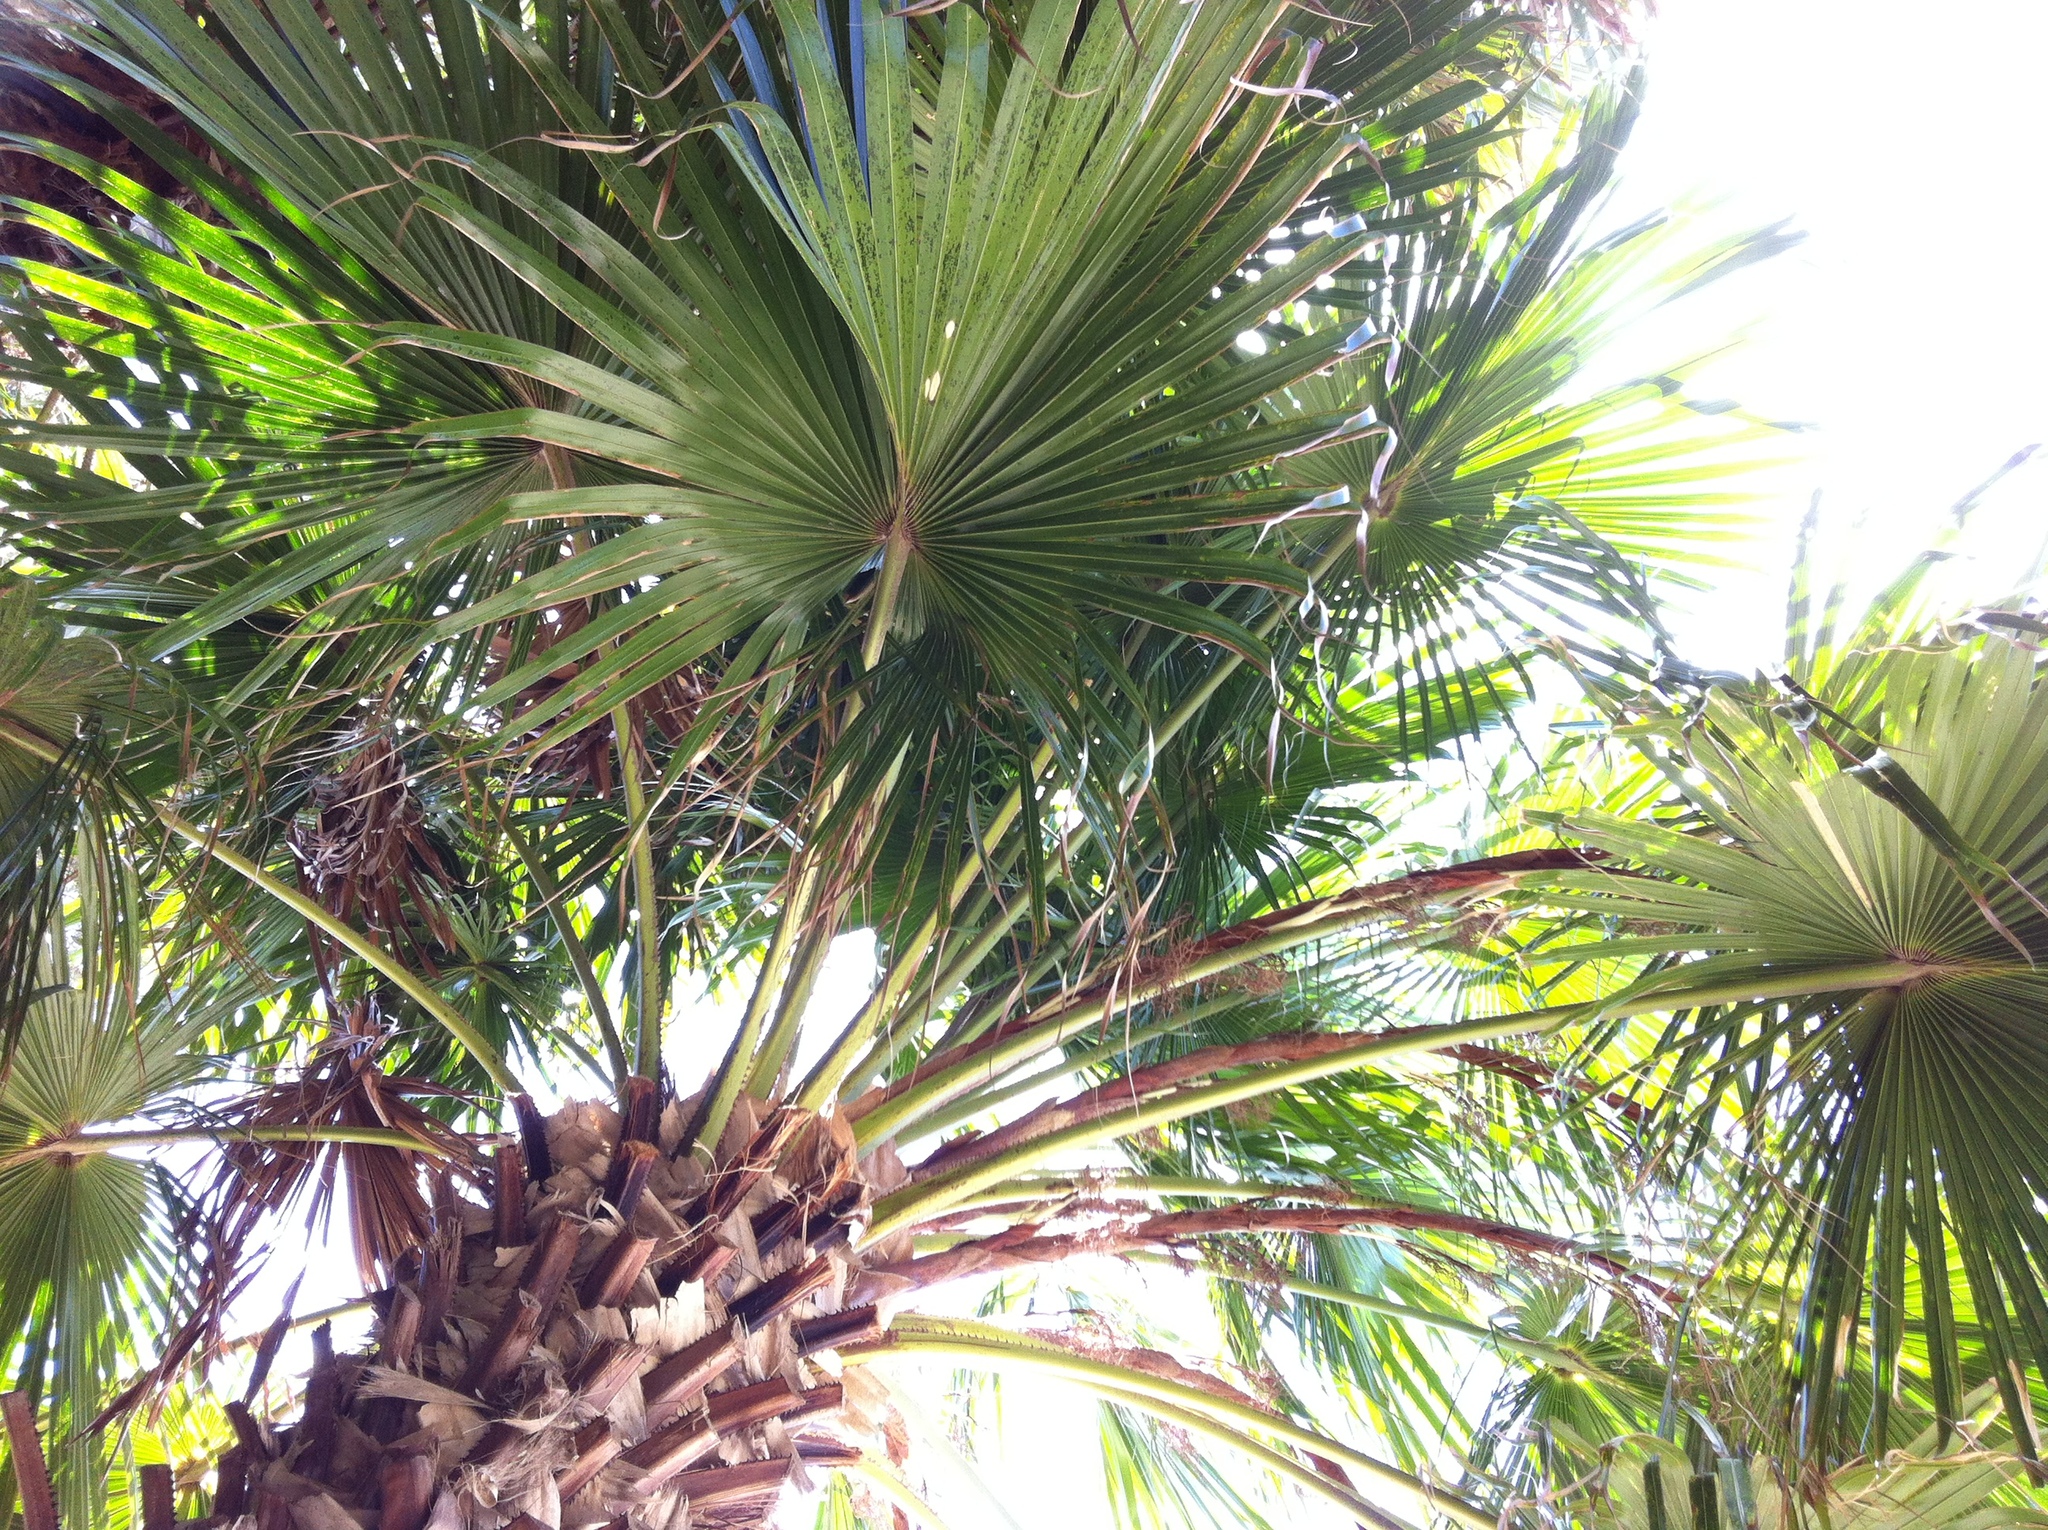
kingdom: Plantae
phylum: Tracheophyta
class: Liliopsida
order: Arecales
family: Arecaceae
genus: Livistona
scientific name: Livistona australis
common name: Cabbage fan palm
